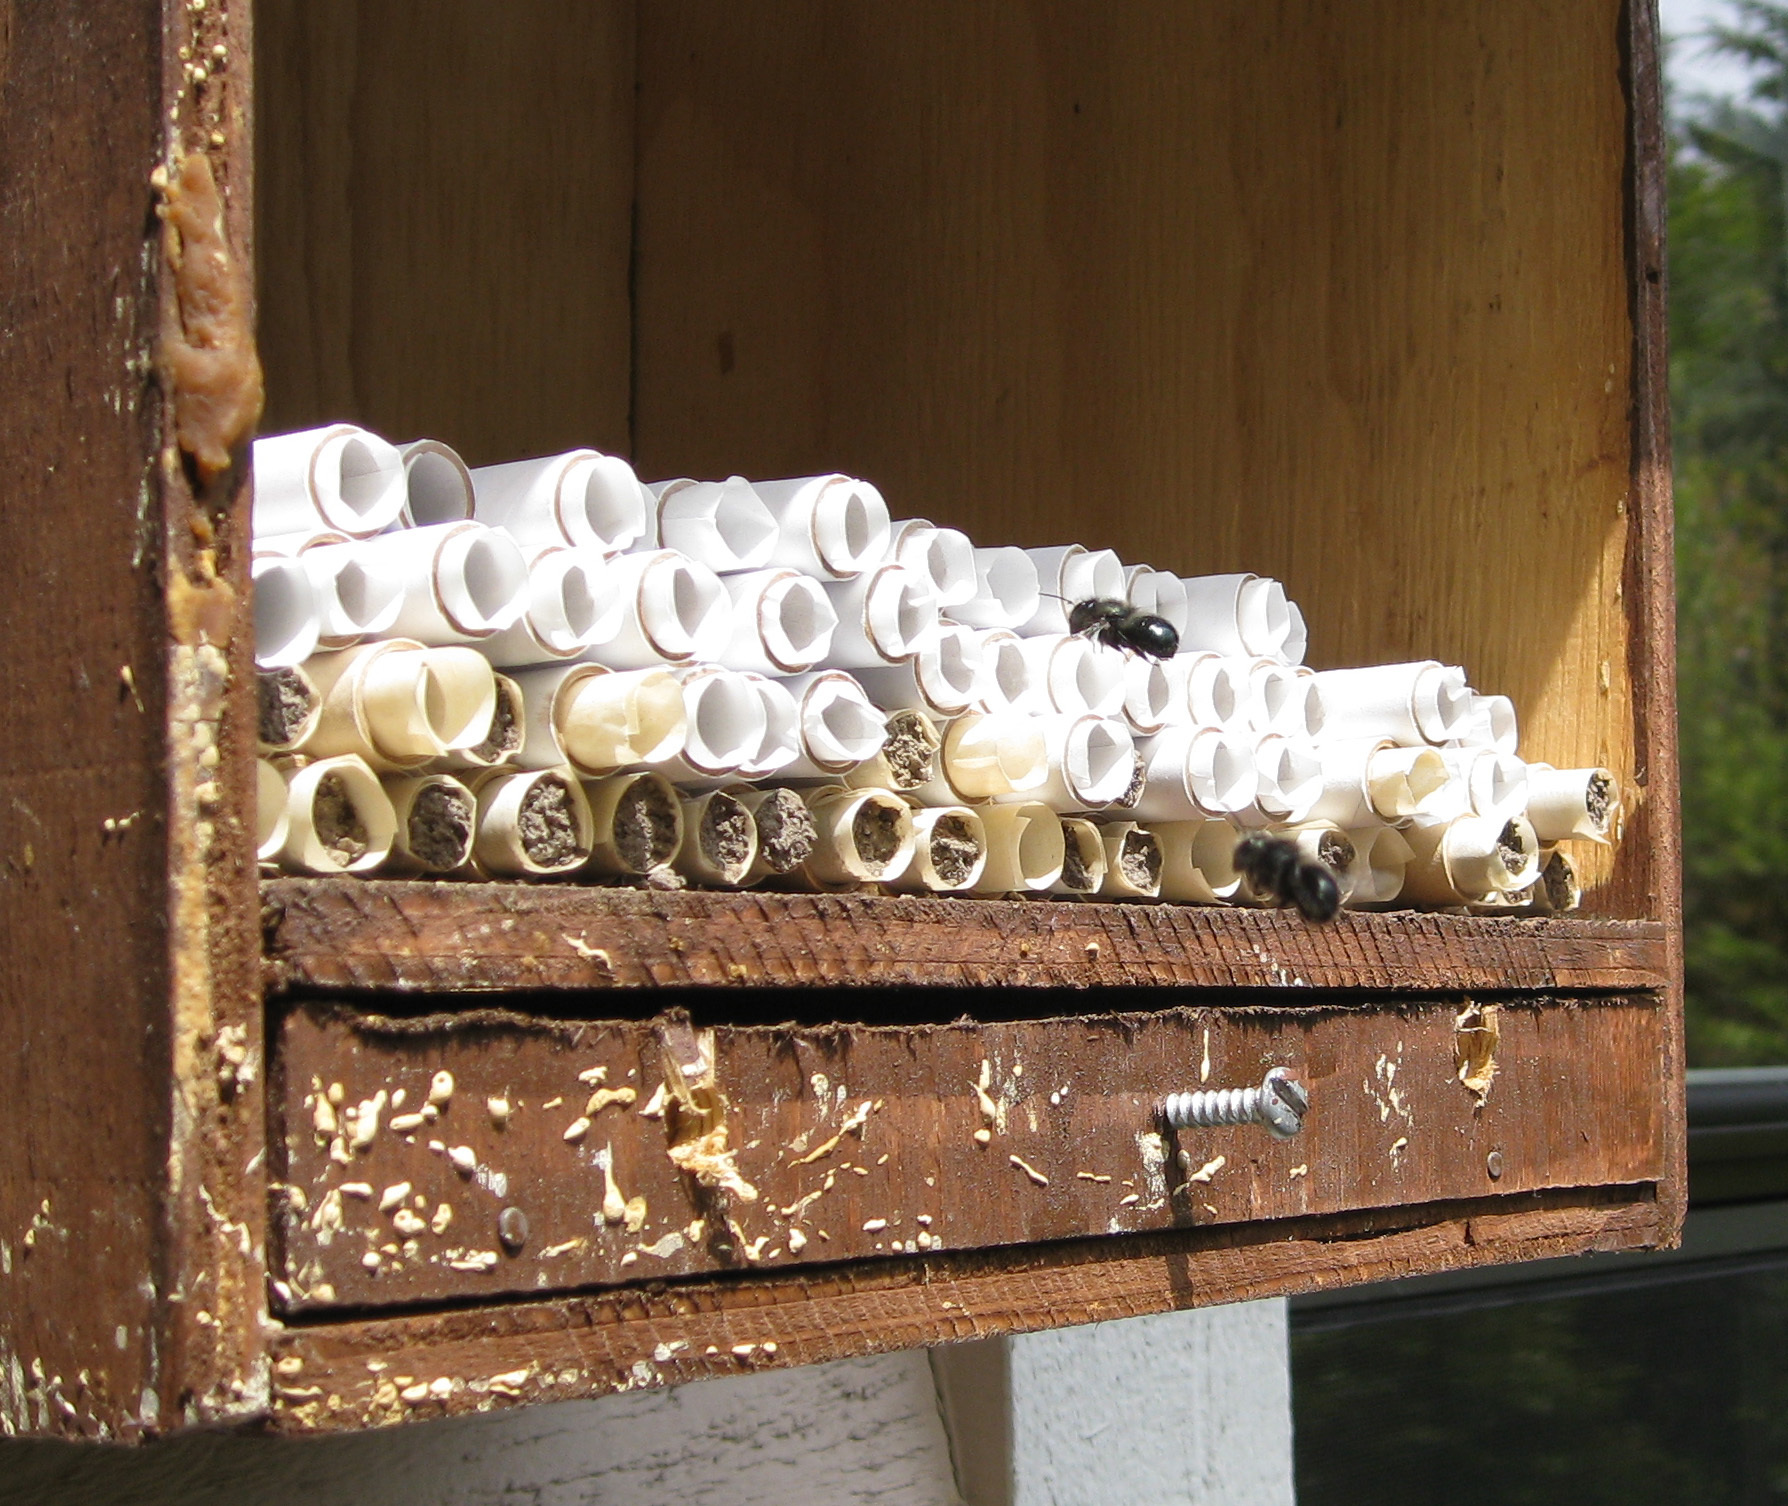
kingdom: Animalia
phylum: Arthropoda
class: Insecta
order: Hymenoptera
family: Megachilidae
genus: Osmia
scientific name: Osmia lignaria
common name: Blue orchard bee
